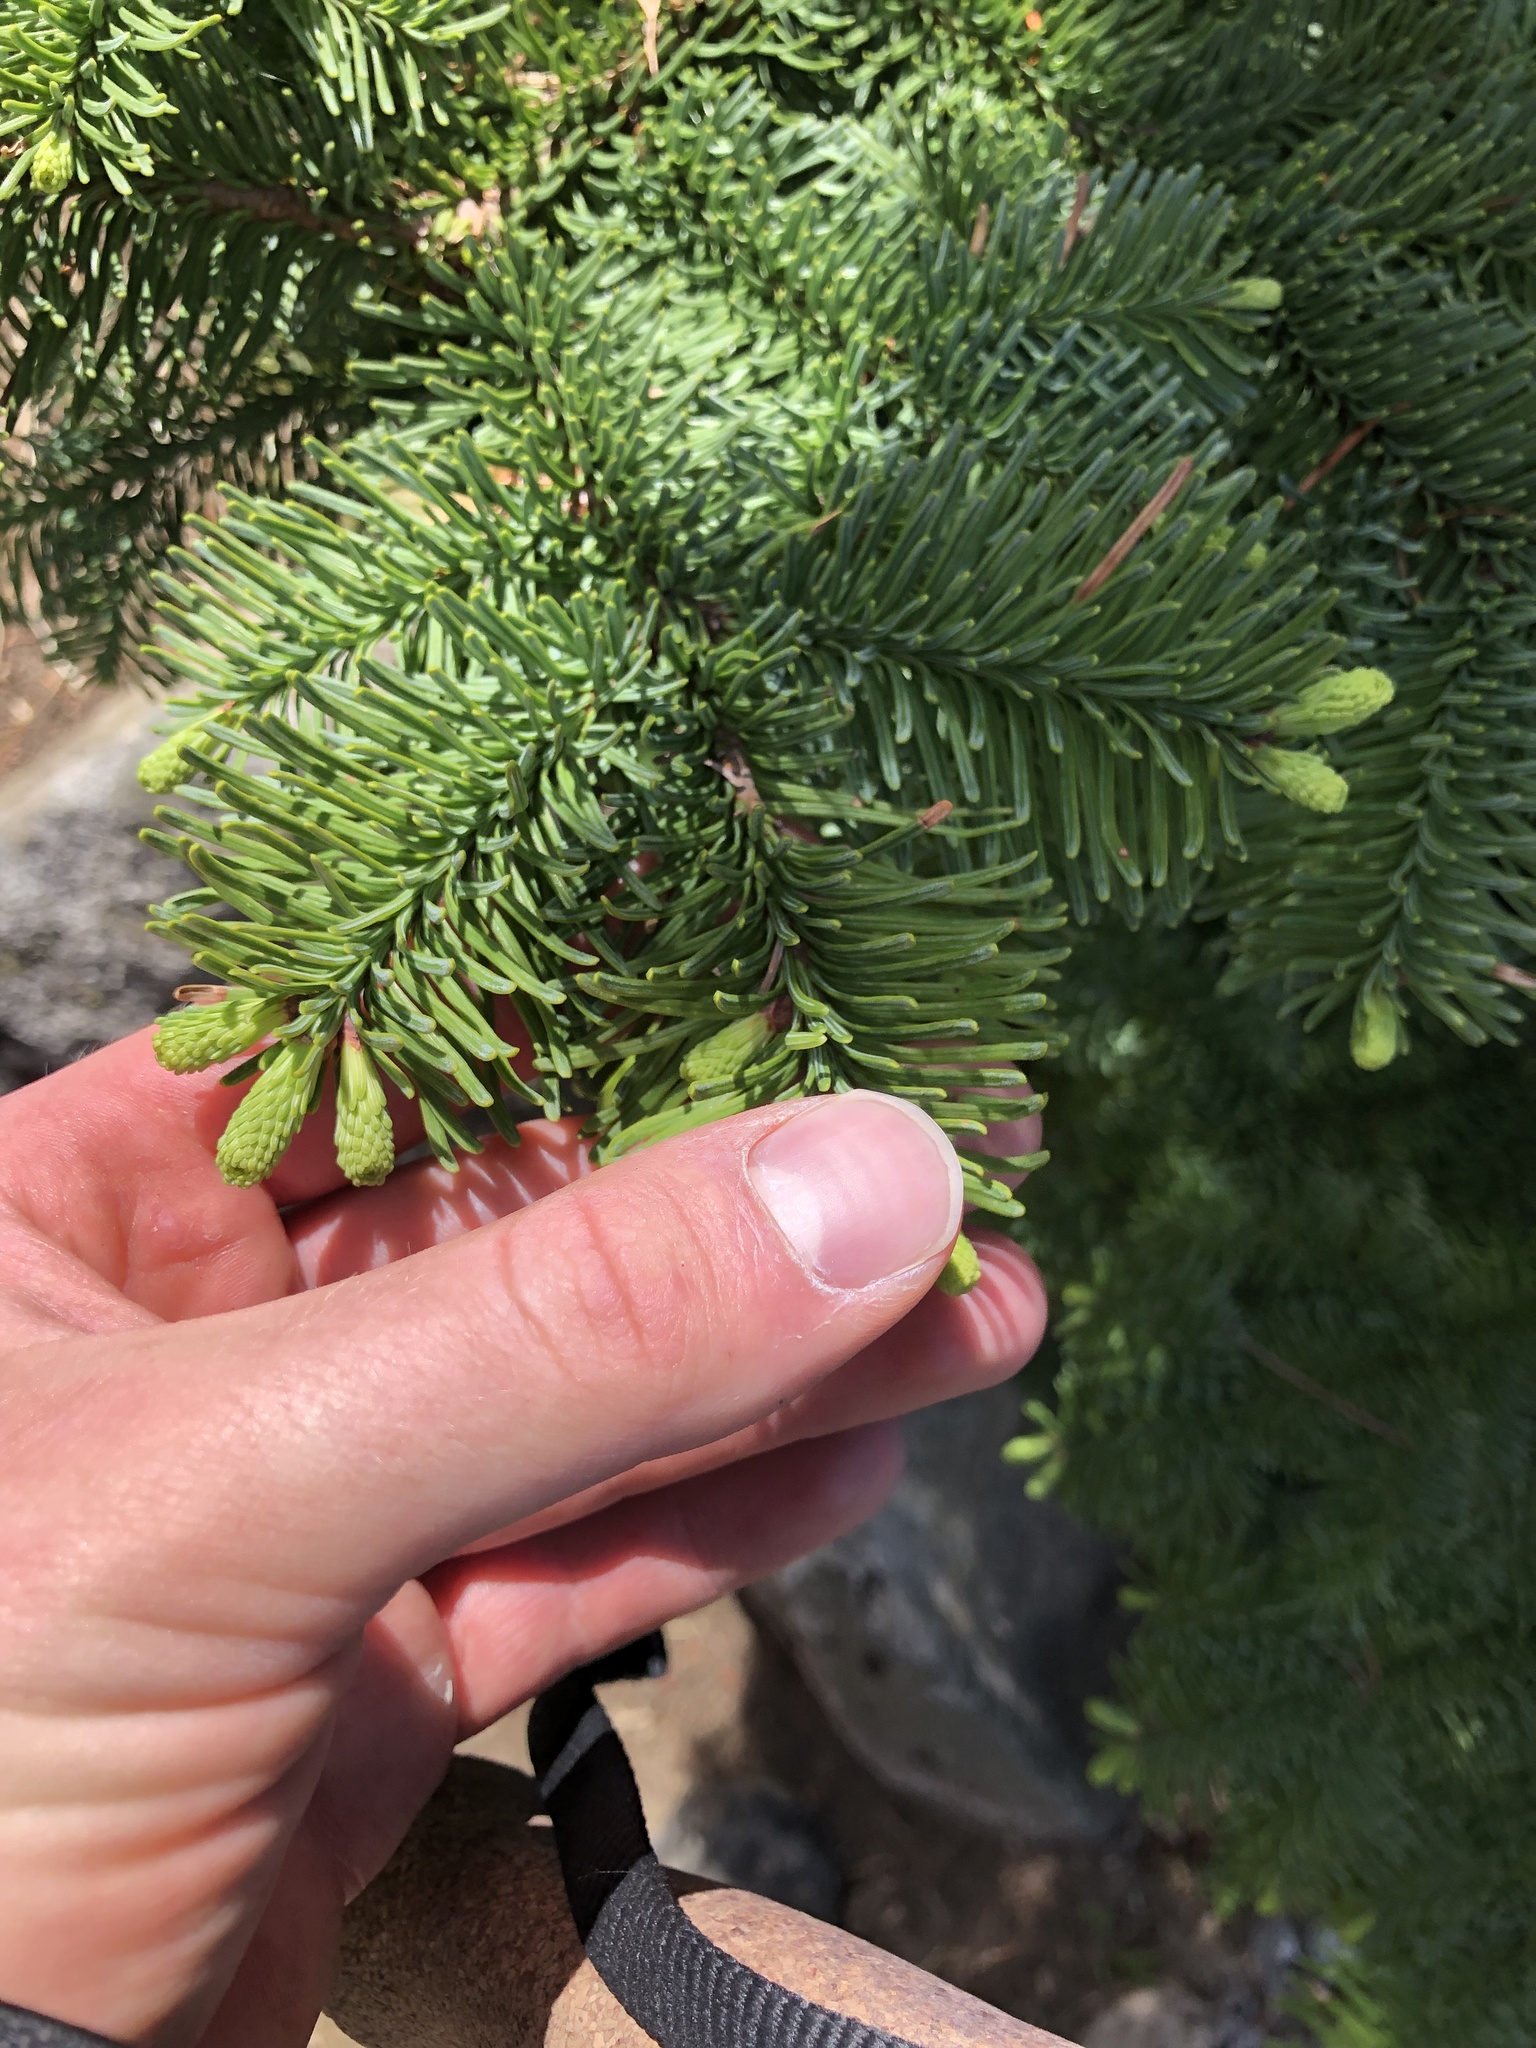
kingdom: Plantae
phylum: Tracheophyta
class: Pinopsida
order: Pinales
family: Pinaceae
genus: Abies
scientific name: Abies procera
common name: Noble fir
